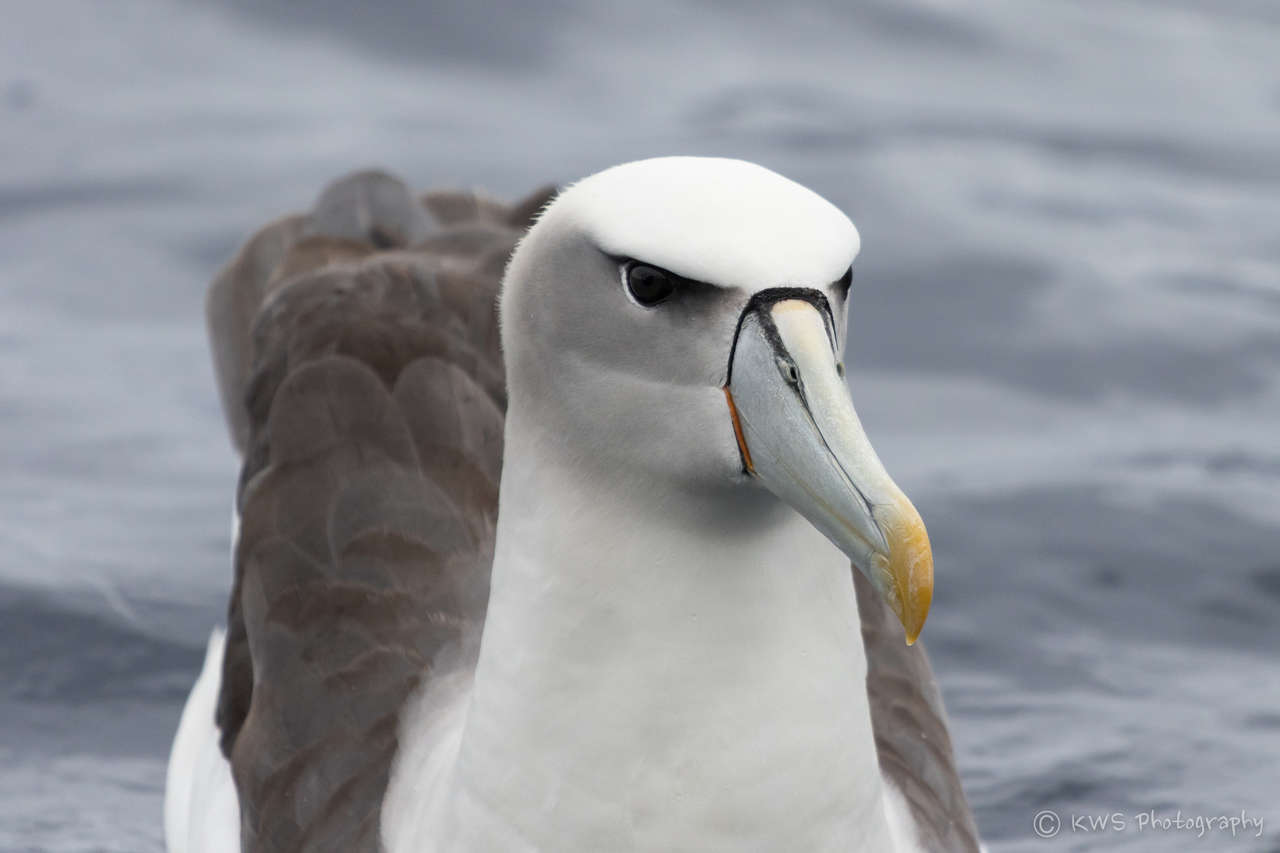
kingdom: Animalia
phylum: Chordata
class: Aves
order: Procellariiformes
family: Diomedeidae
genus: Thalassarche
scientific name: Thalassarche cauta
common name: Shy albatross
